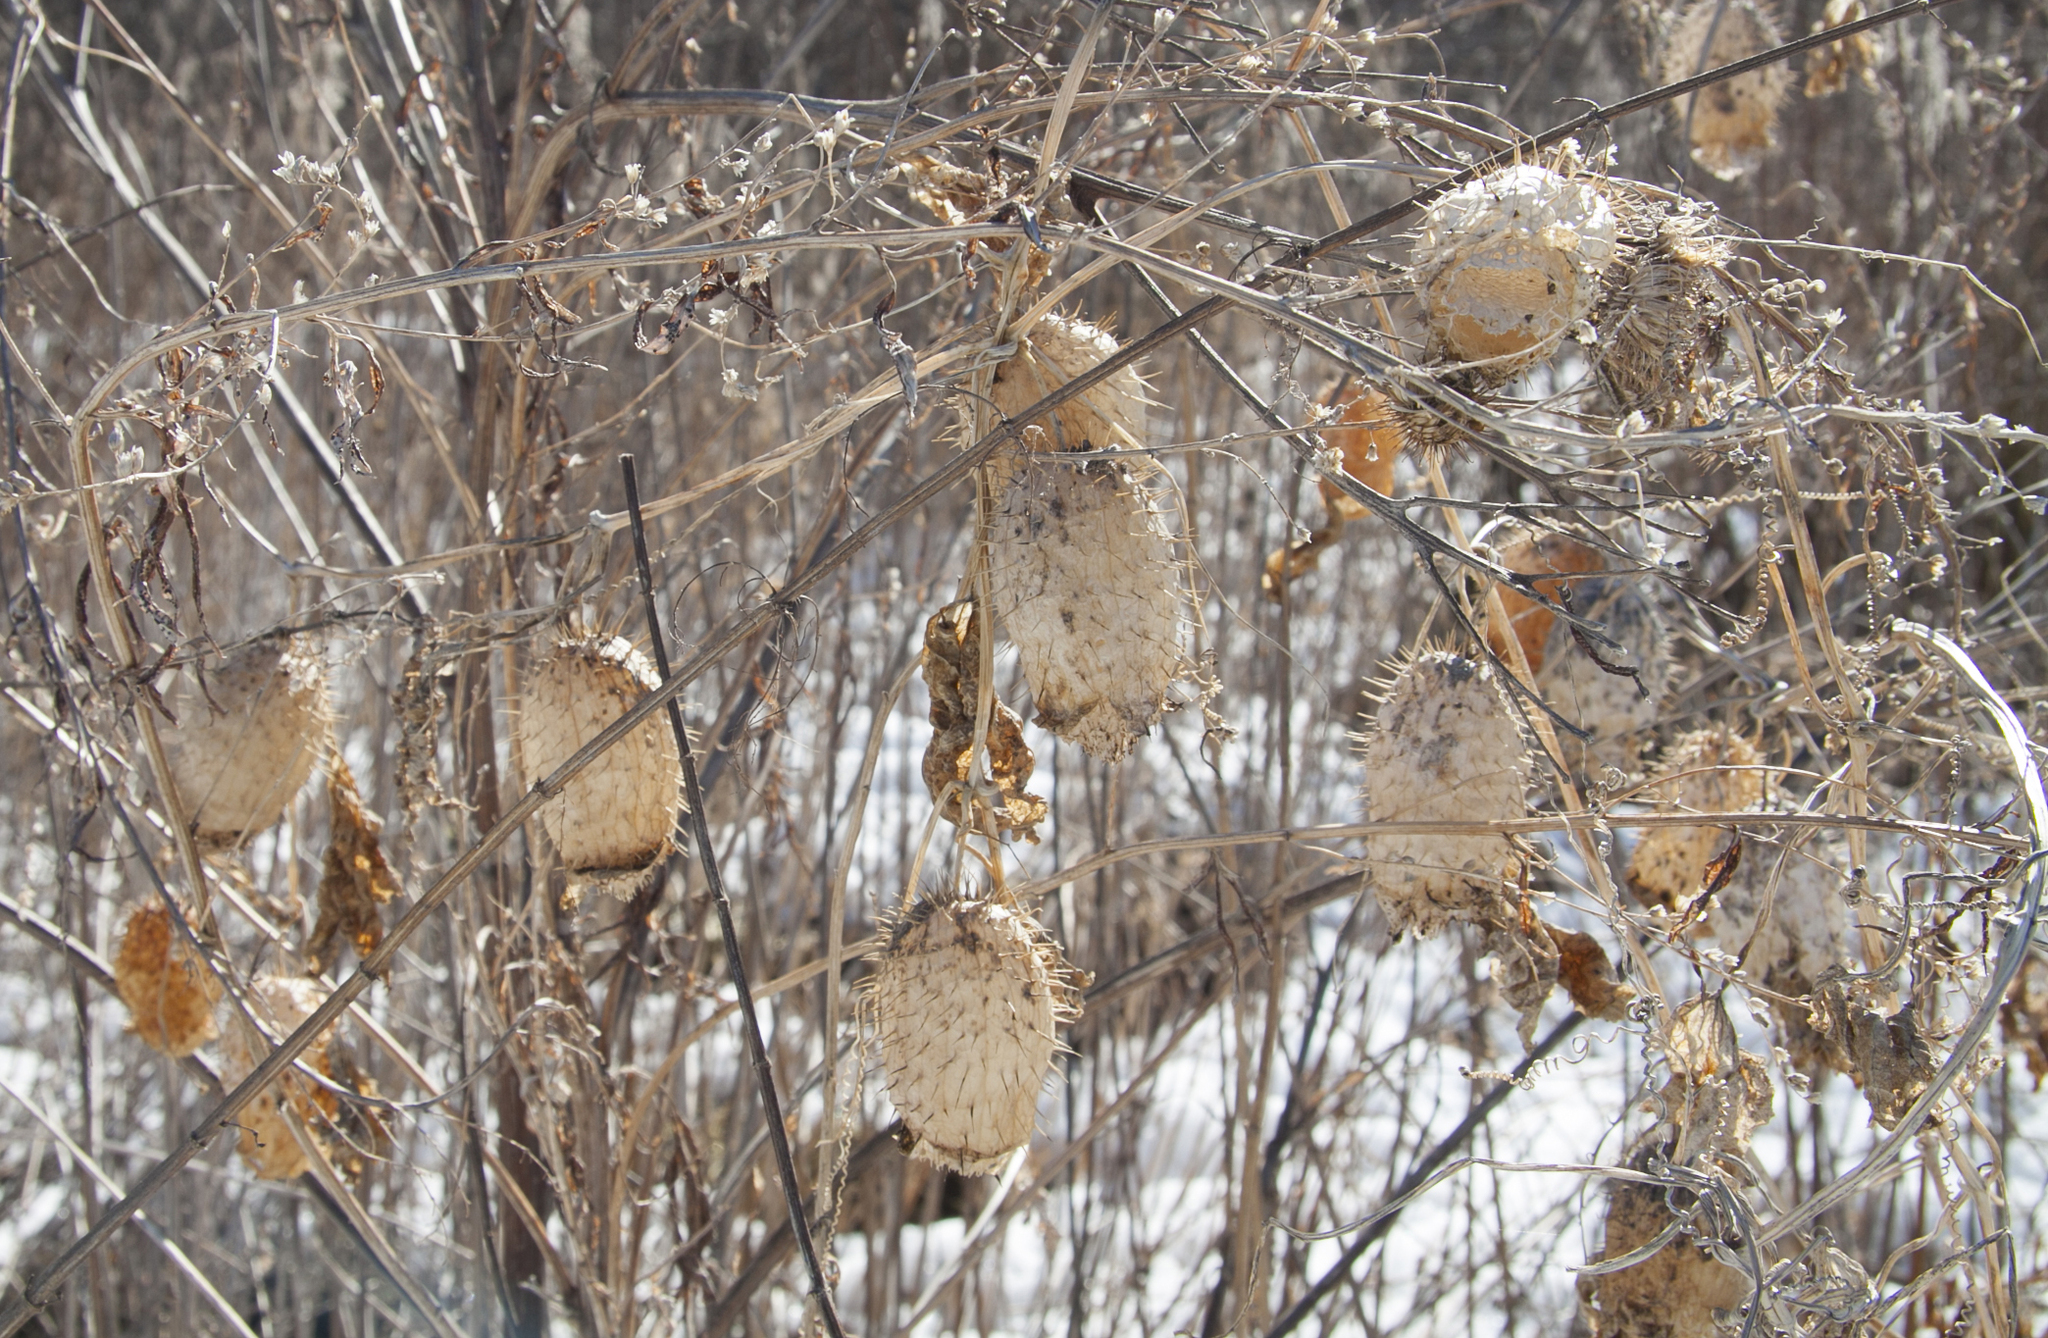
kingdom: Plantae
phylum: Tracheophyta
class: Magnoliopsida
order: Cucurbitales
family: Cucurbitaceae
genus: Echinocystis
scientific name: Echinocystis lobata
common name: Wild cucumber
